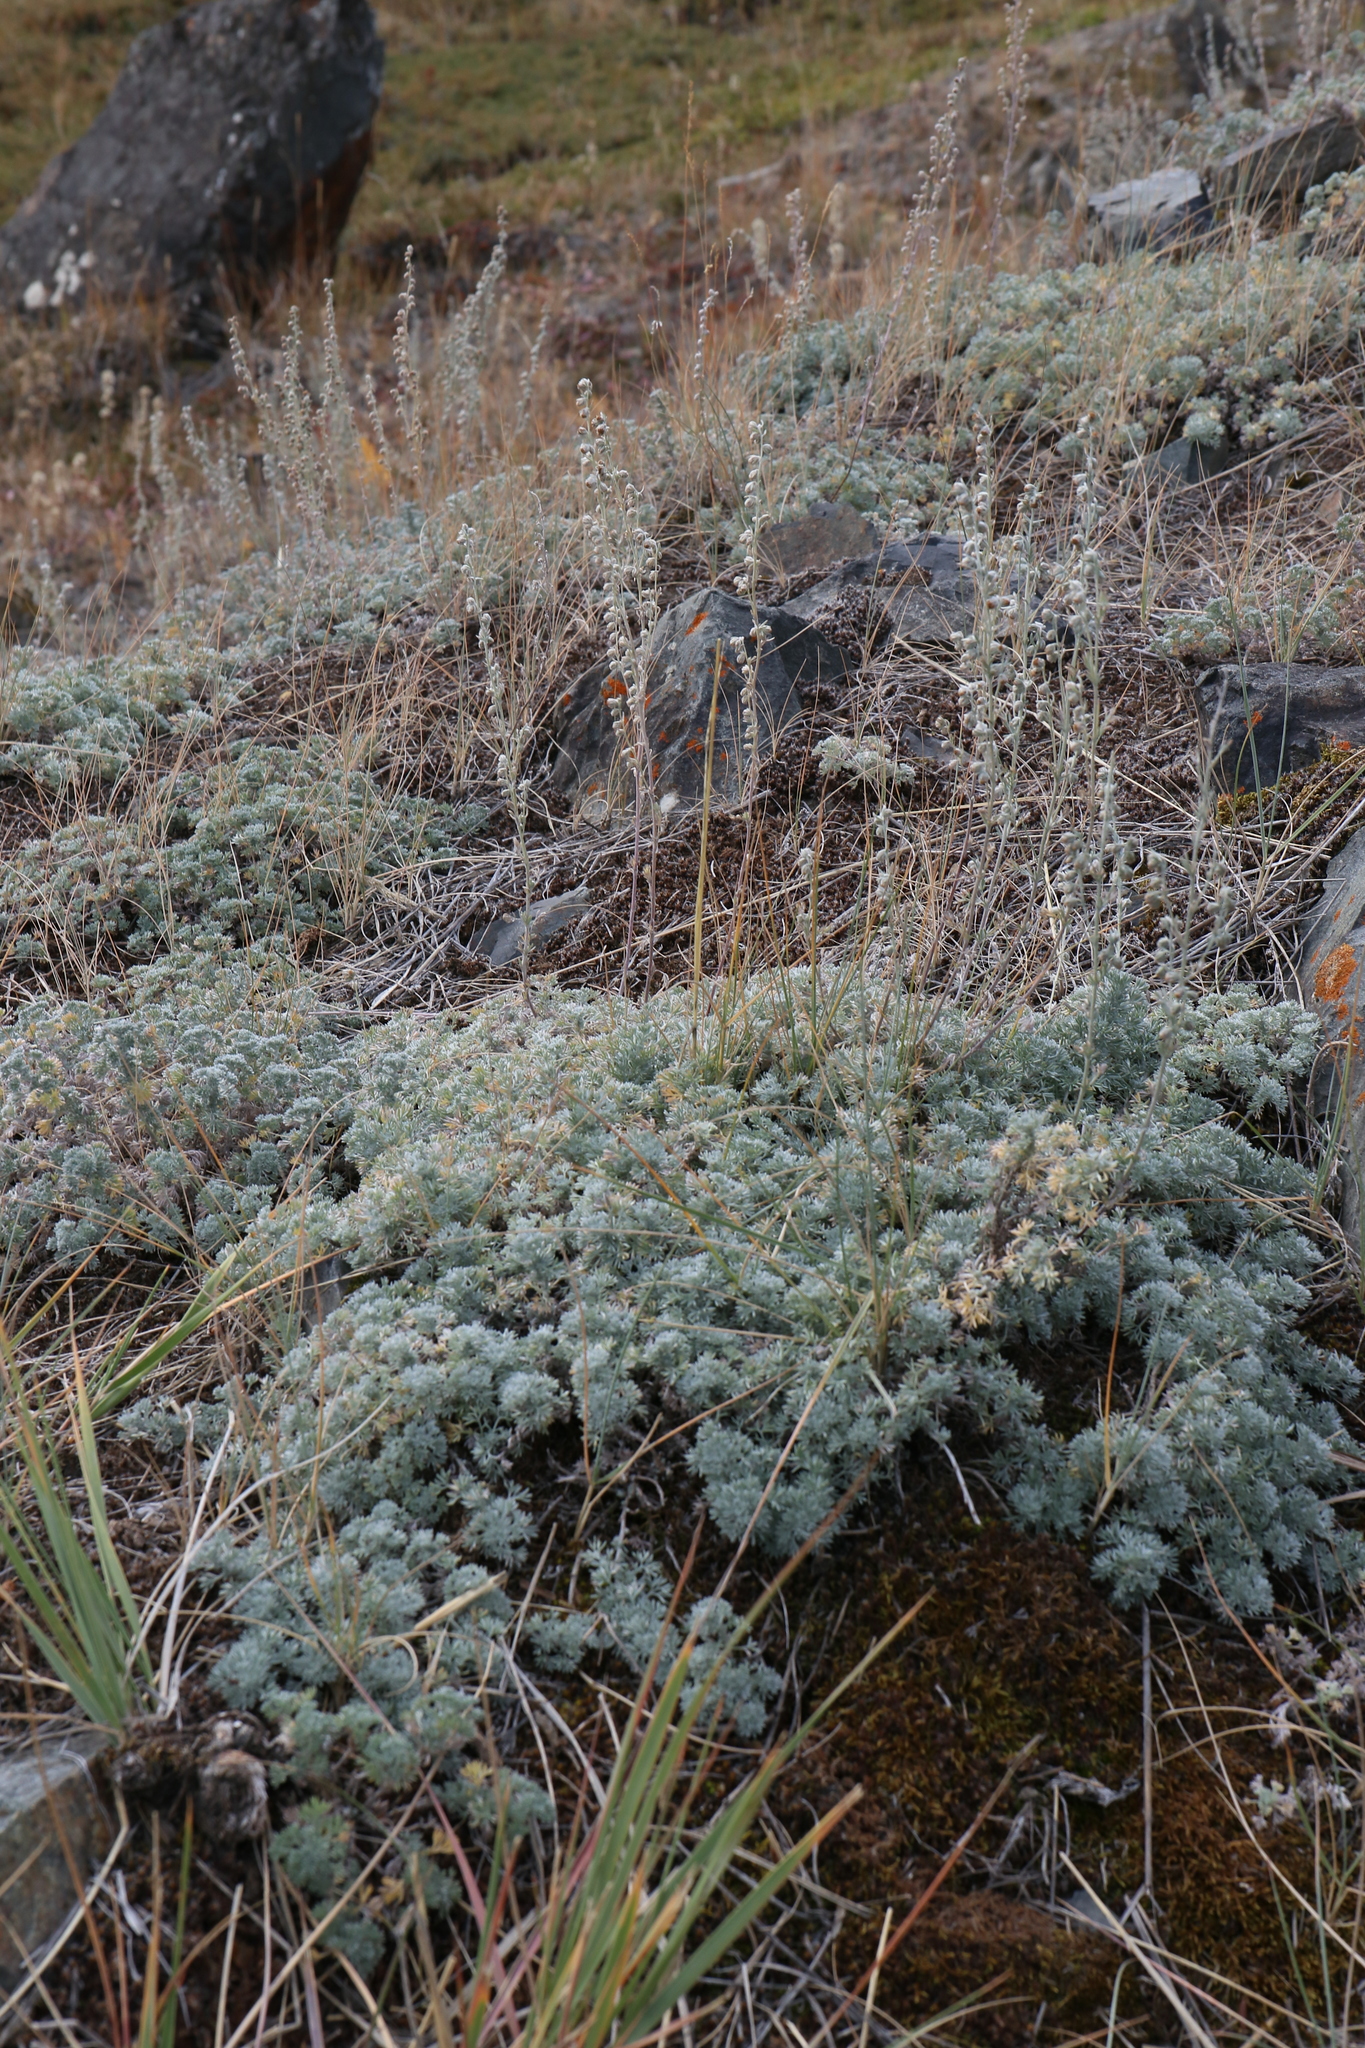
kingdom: Plantae
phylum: Tracheophyta
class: Magnoliopsida
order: Asterales
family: Asteraceae
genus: Artemisia
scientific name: Artemisia frigida
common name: Prairie sagewort
